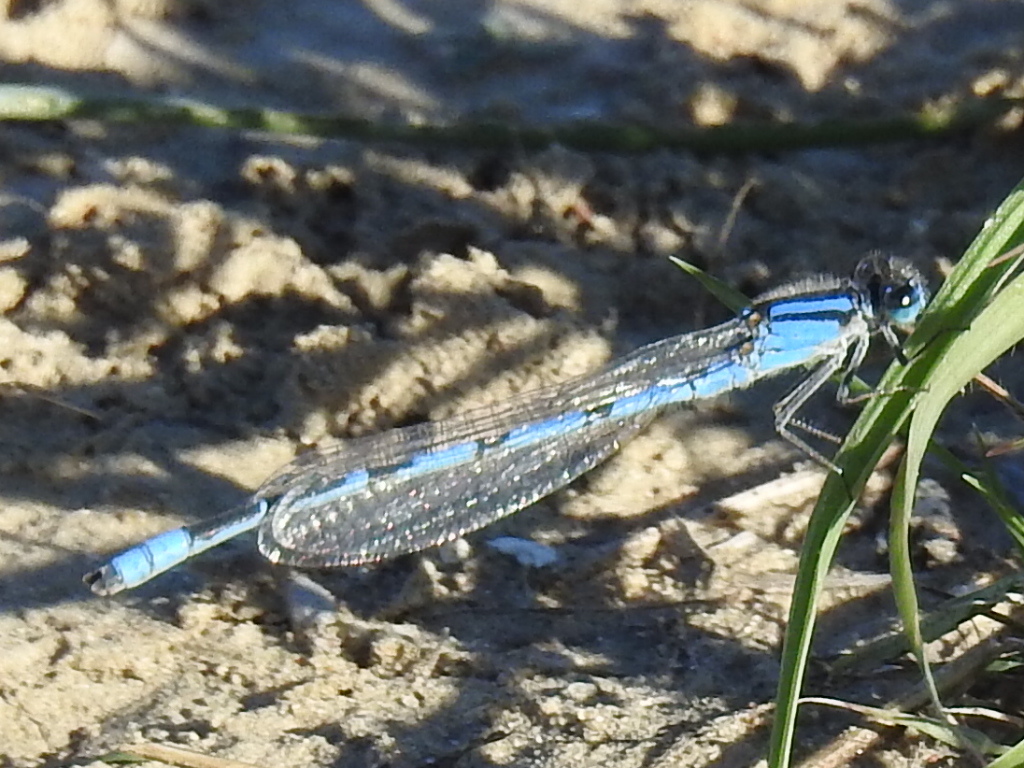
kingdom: Animalia
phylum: Arthropoda
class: Insecta
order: Odonata
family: Coenagrionidae
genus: Enallagma
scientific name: Enallagma civile
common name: Damselfly
